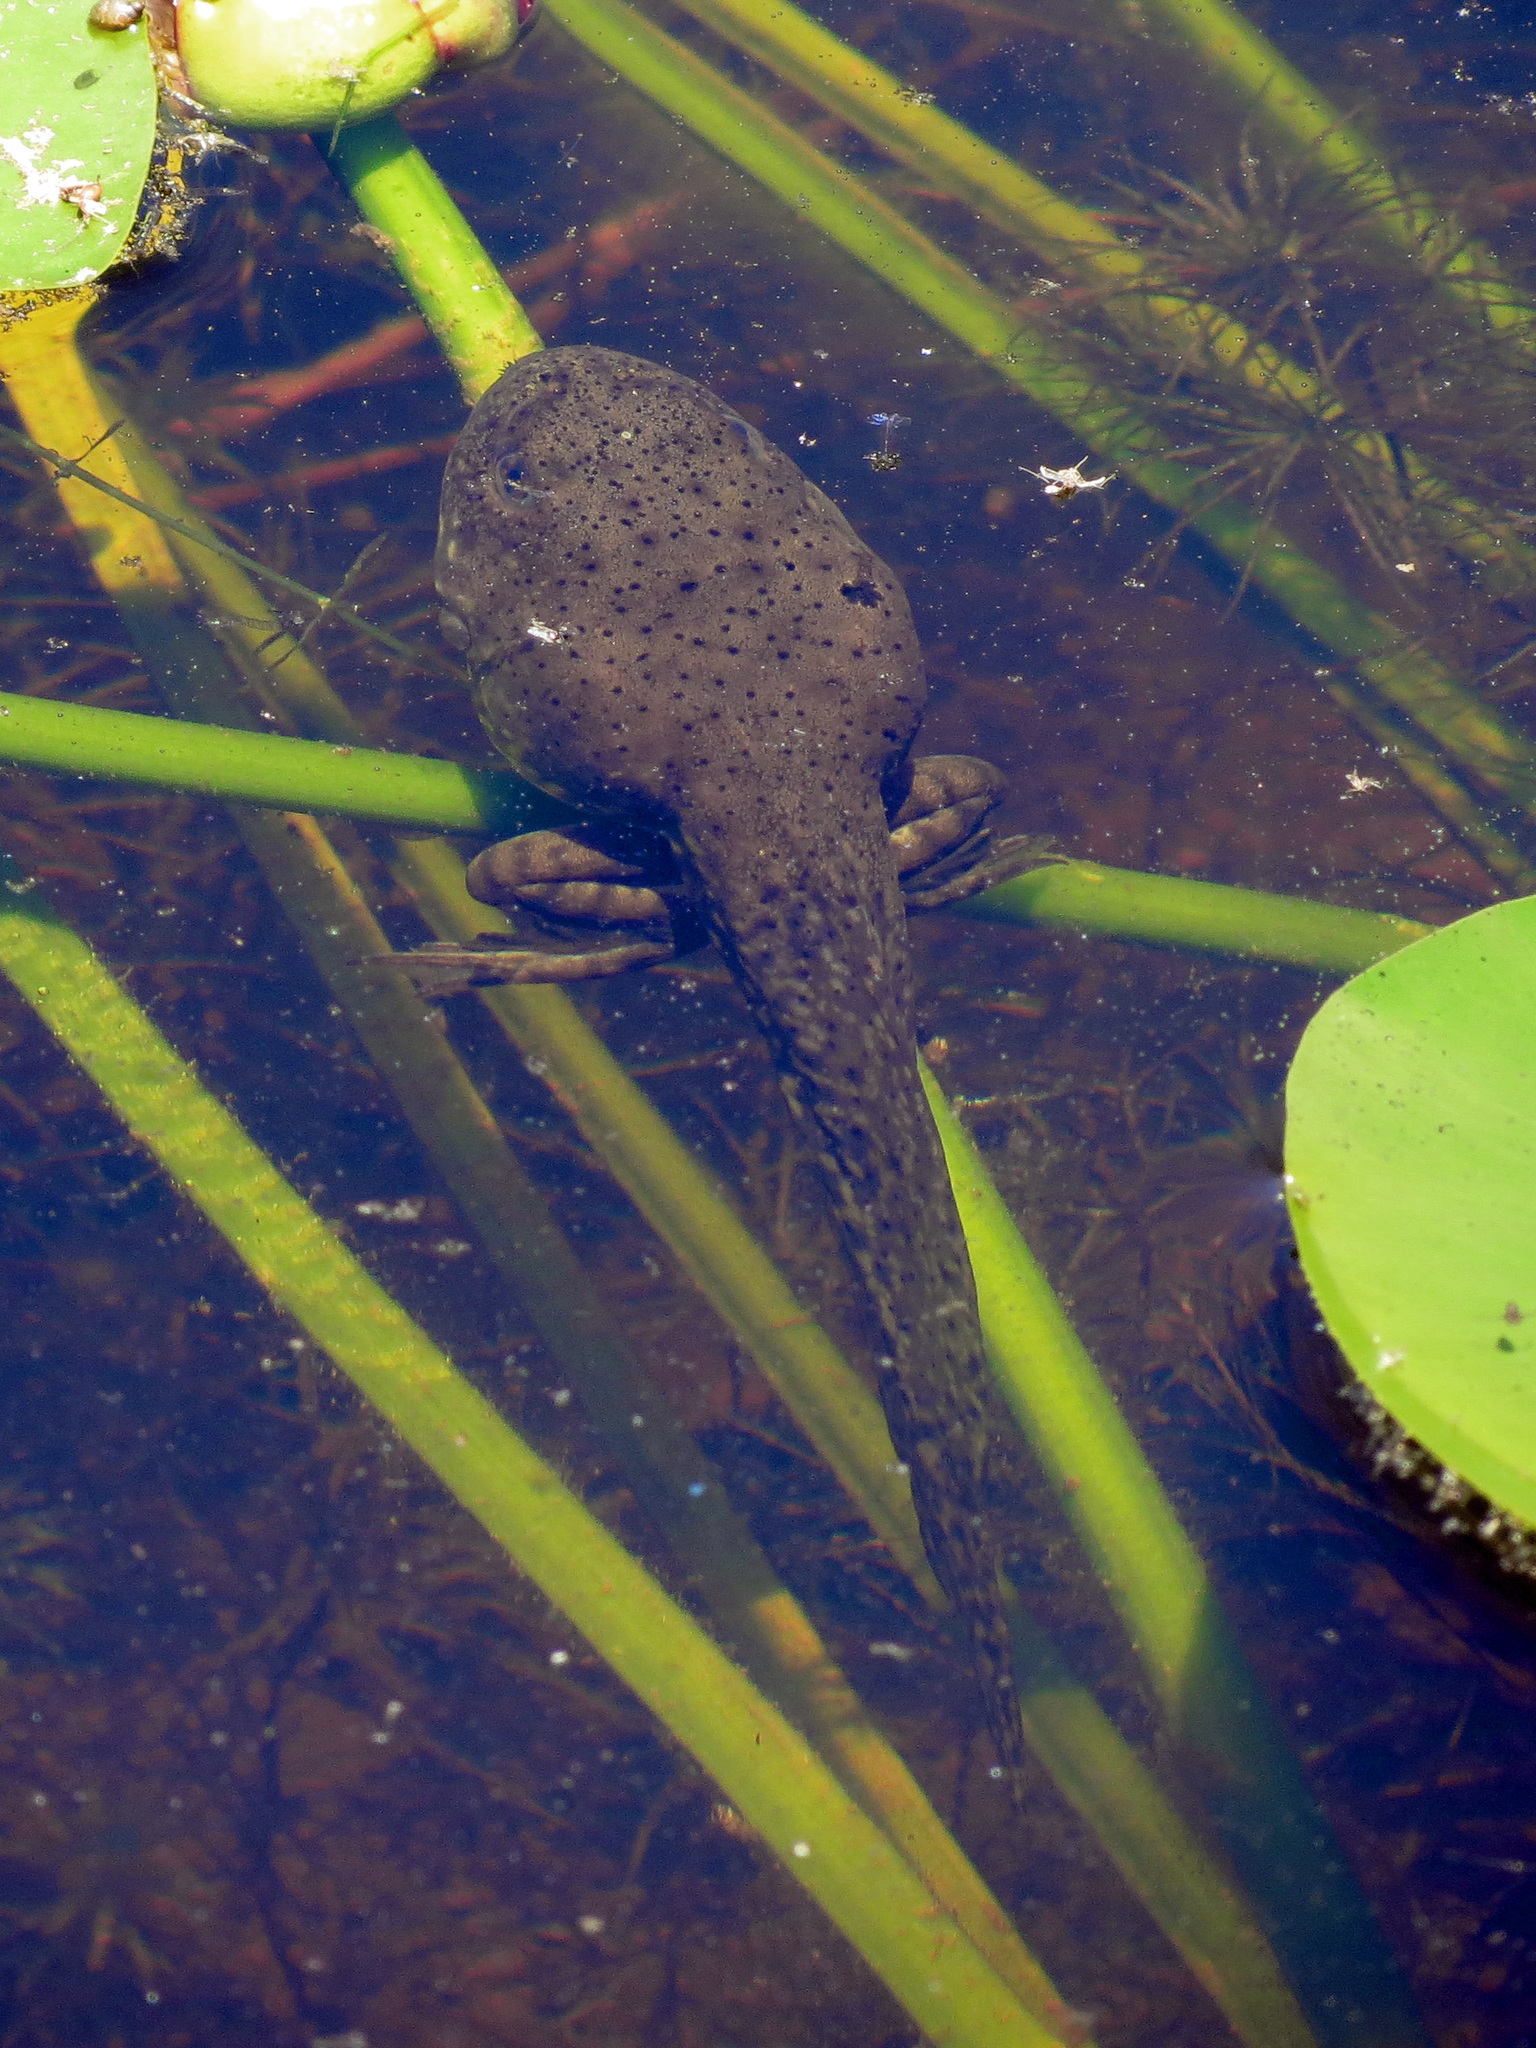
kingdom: Animalia
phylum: Chordata
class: Amphibia
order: Anura
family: Ranidae
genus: Lithobates
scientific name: Lithobates catesbeianus
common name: American bullfrog
